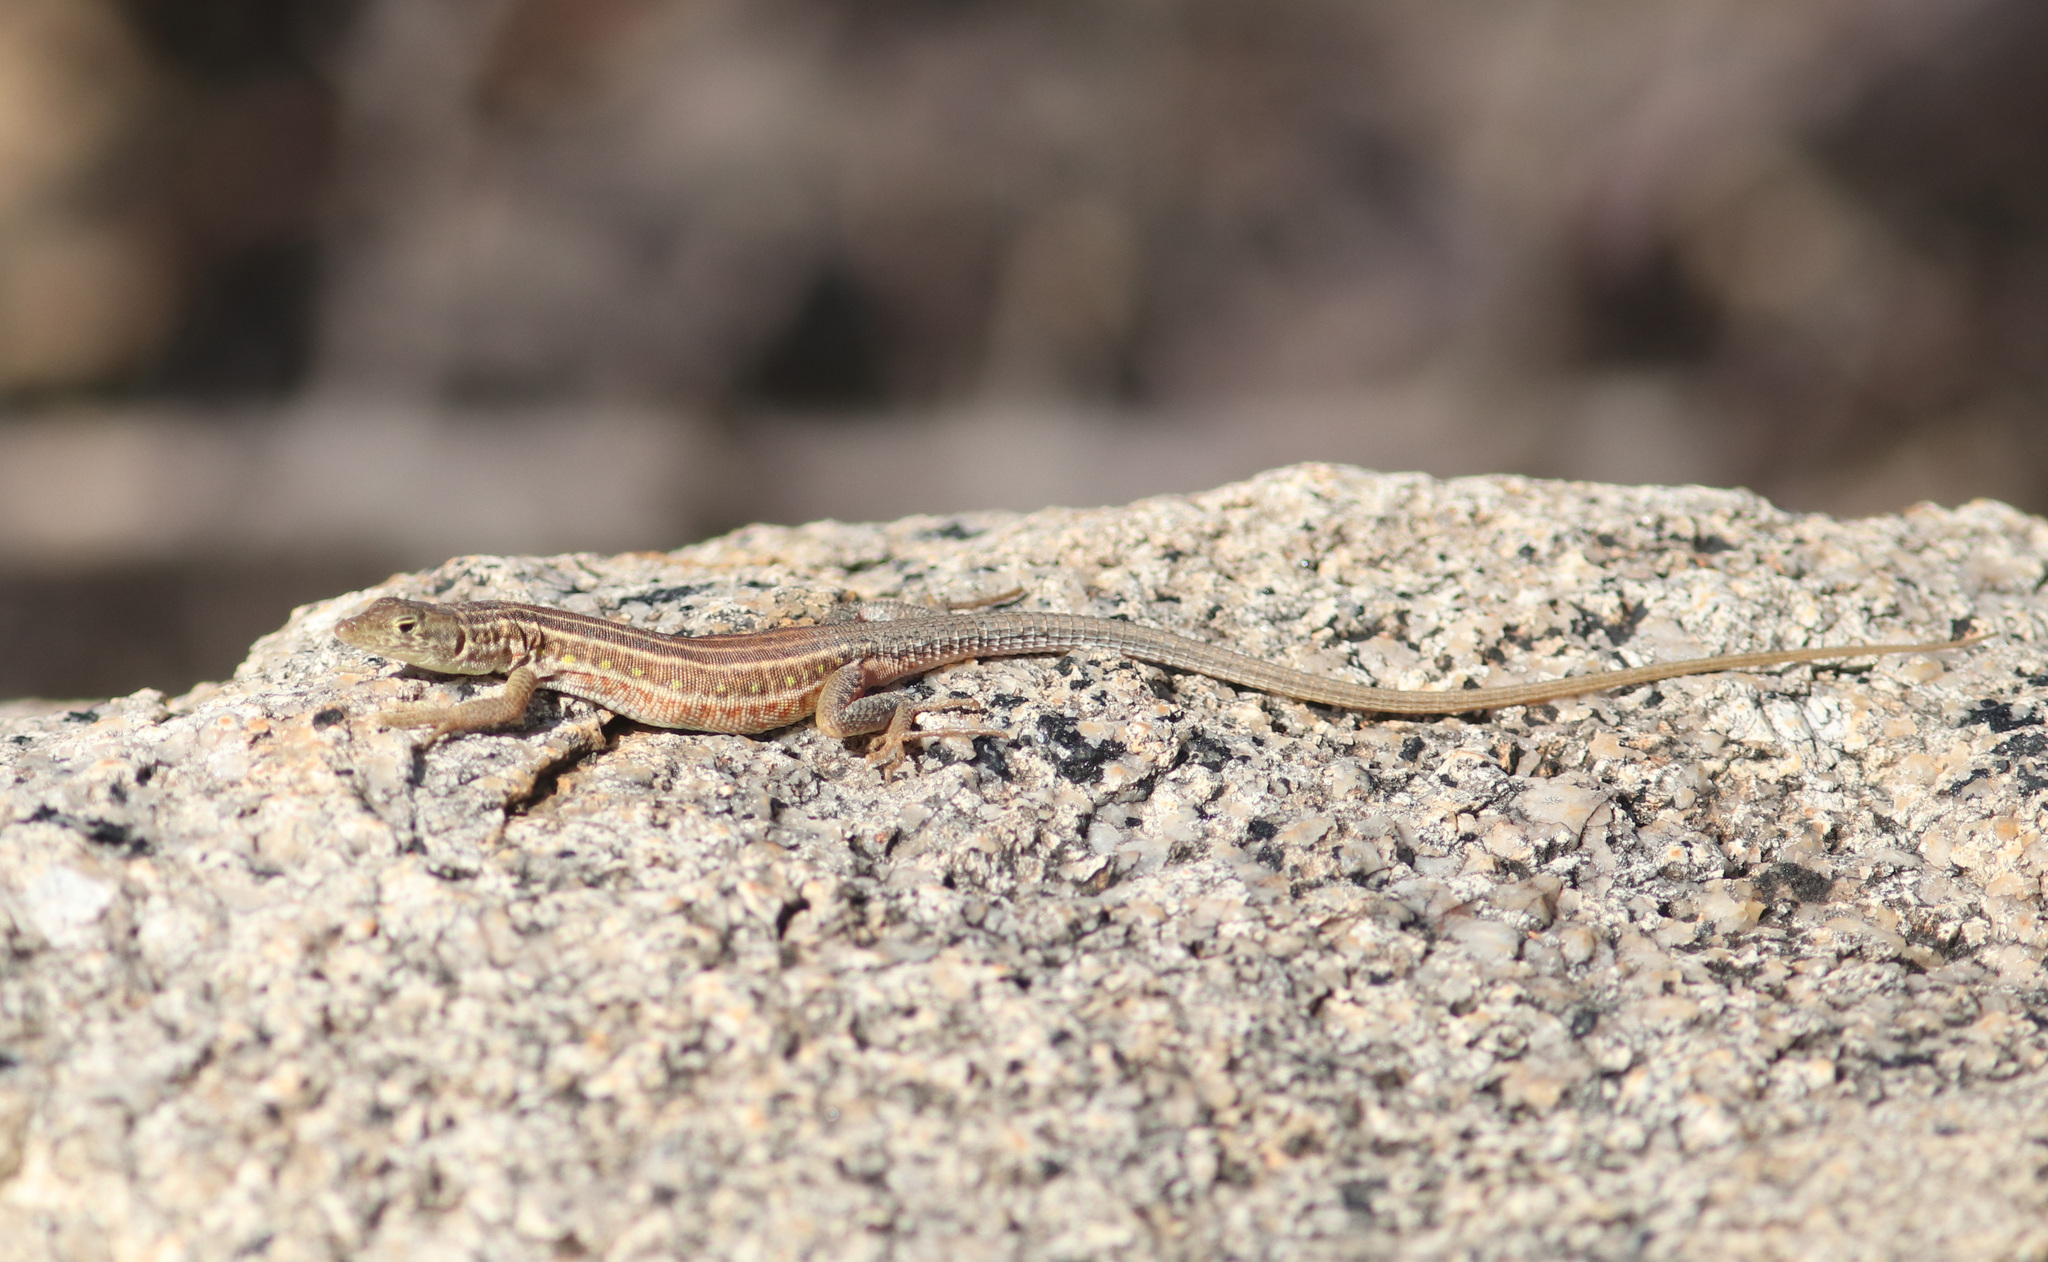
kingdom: Animalia
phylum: Chordata
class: Squamata
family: Lacertidae
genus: Pedioplanis
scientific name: Pedioplanis undata
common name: Plain sand lizard
